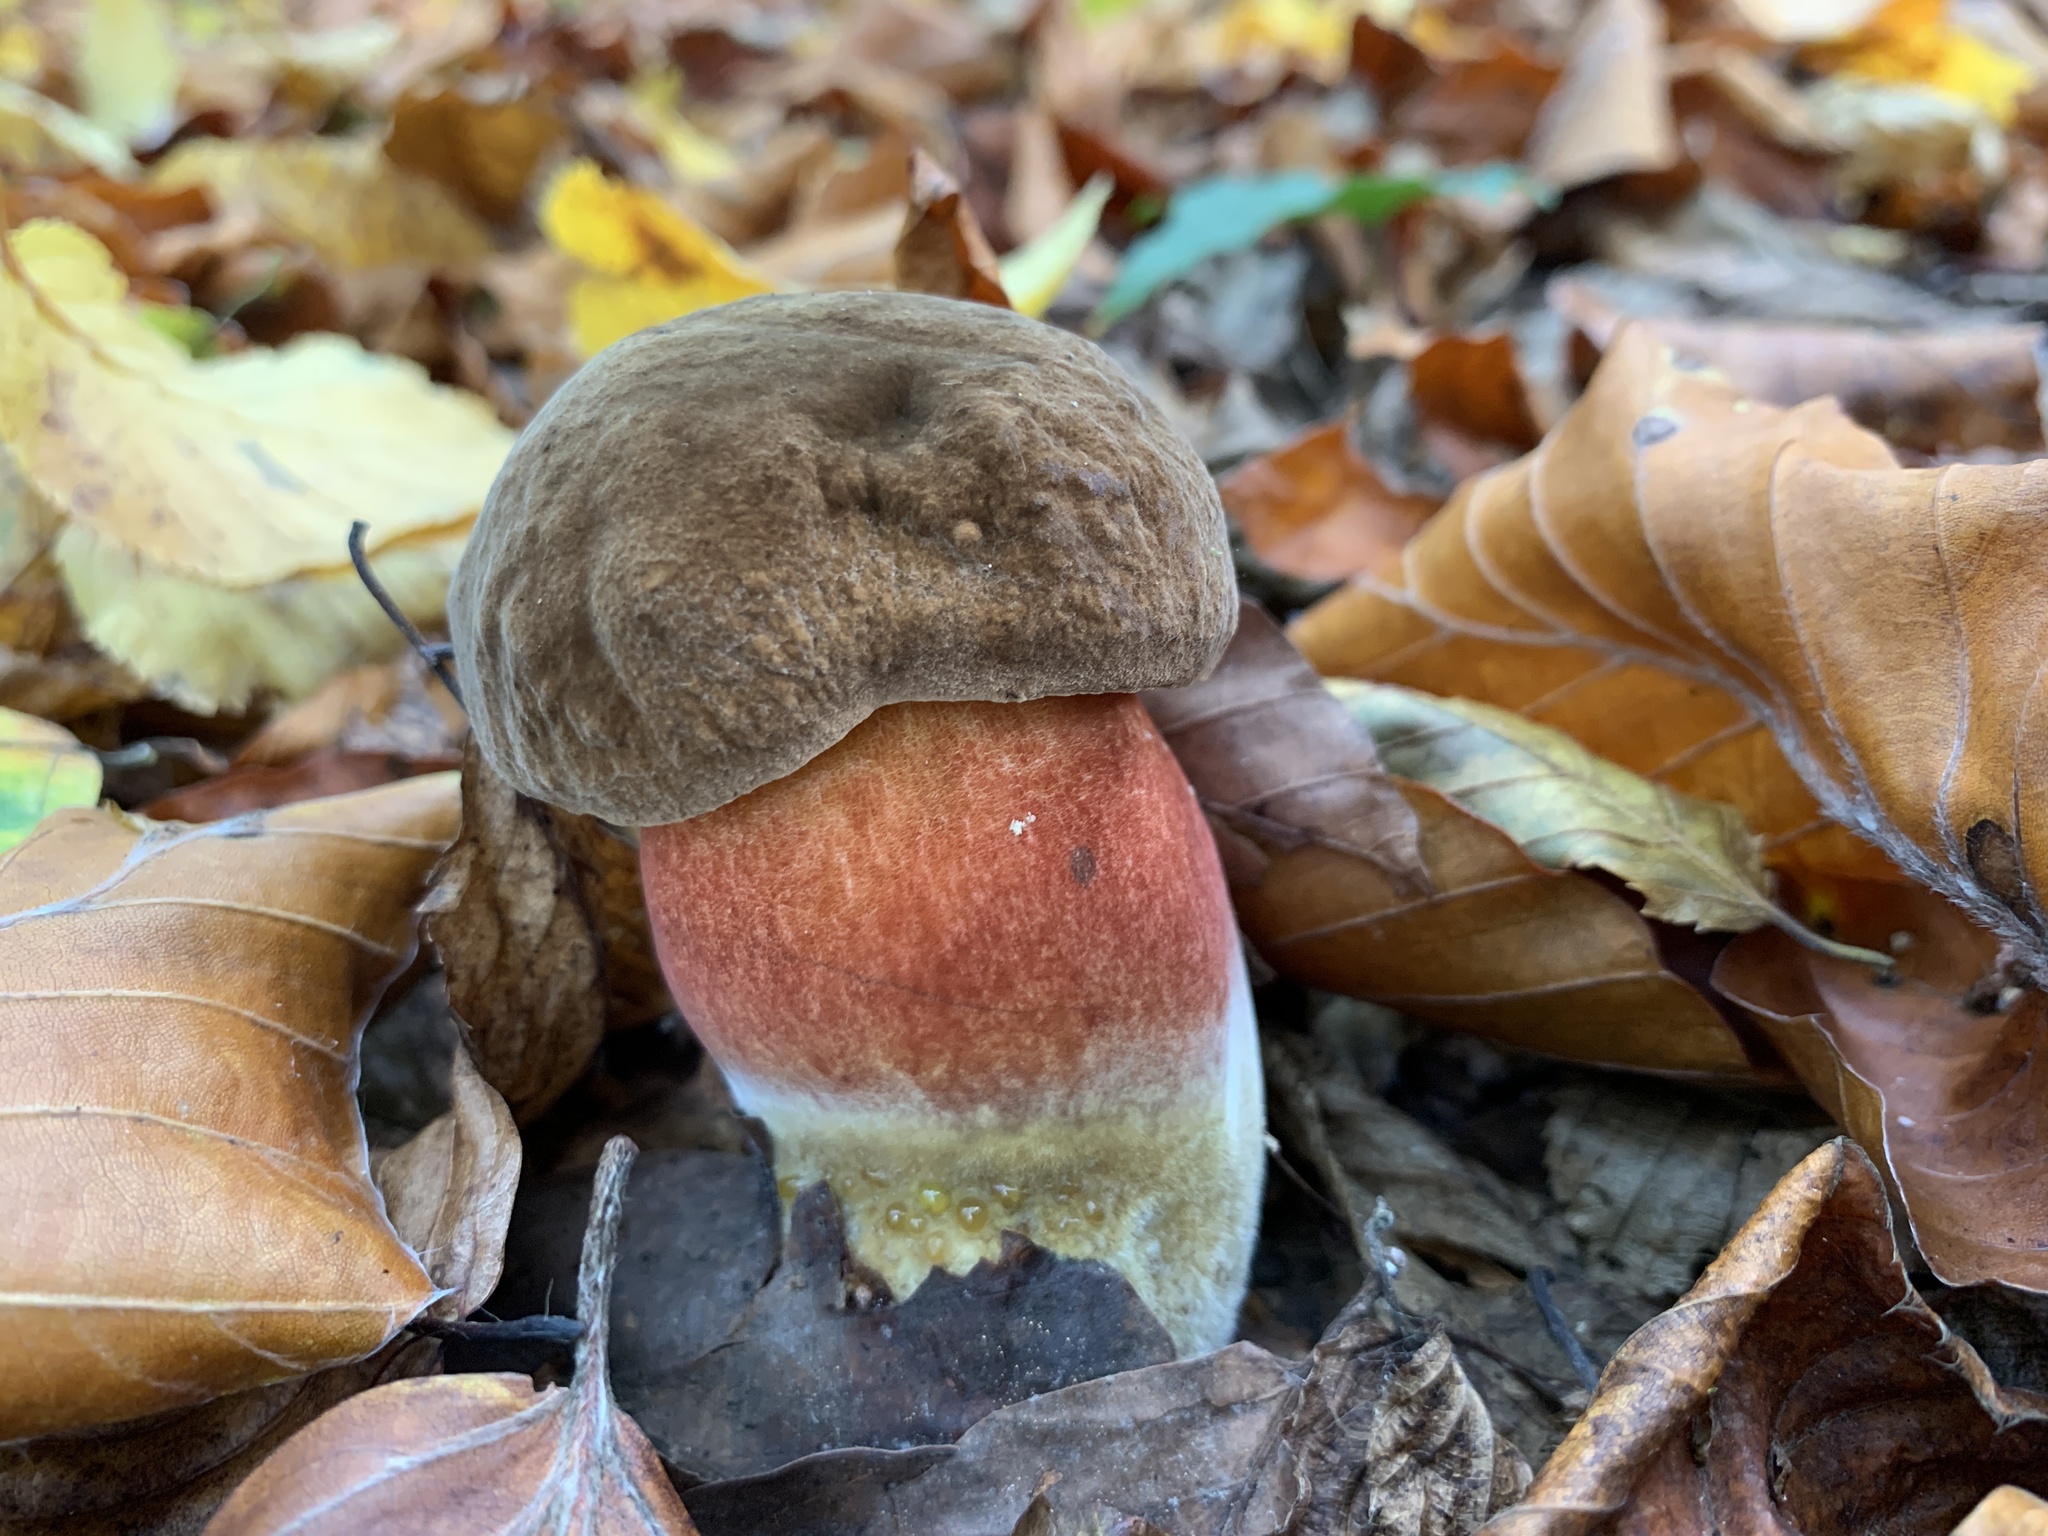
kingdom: Fungi
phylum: Basidiomycota
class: Agaricomycetes
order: Boletales
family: Boletaceae
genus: Neoboletus
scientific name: Neoboletus erythropus
